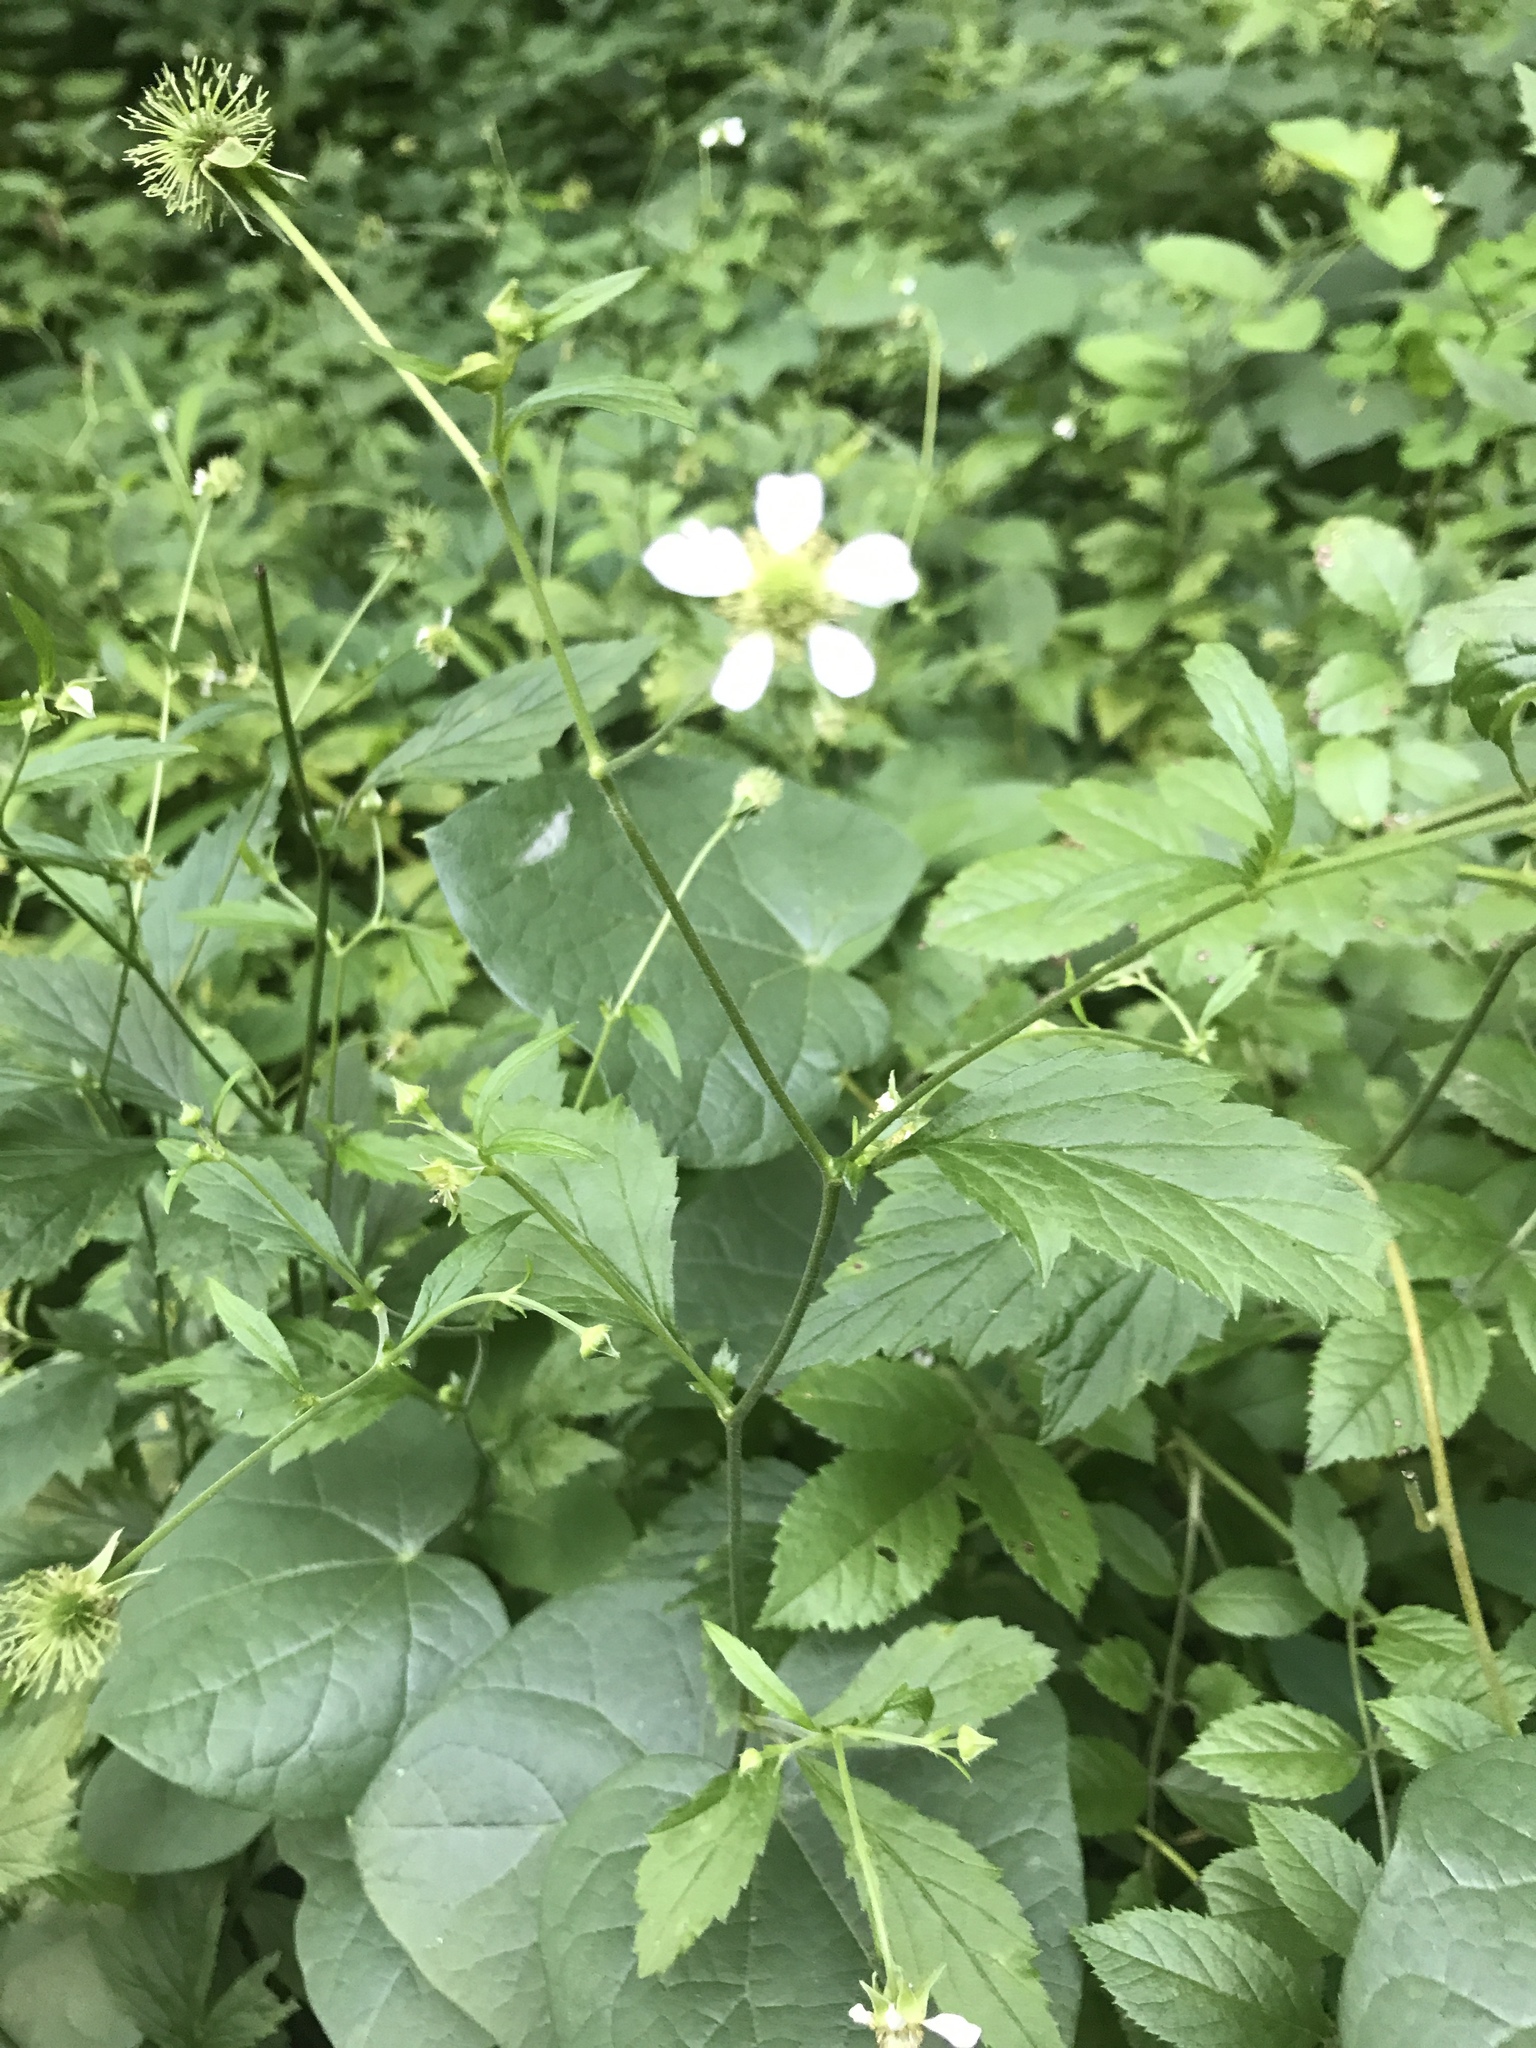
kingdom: Plantae
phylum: Tracheophyta
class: Magnoliopsida
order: Rosales
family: Rosaceae
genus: Geum
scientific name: Geum canadense
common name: White avens
